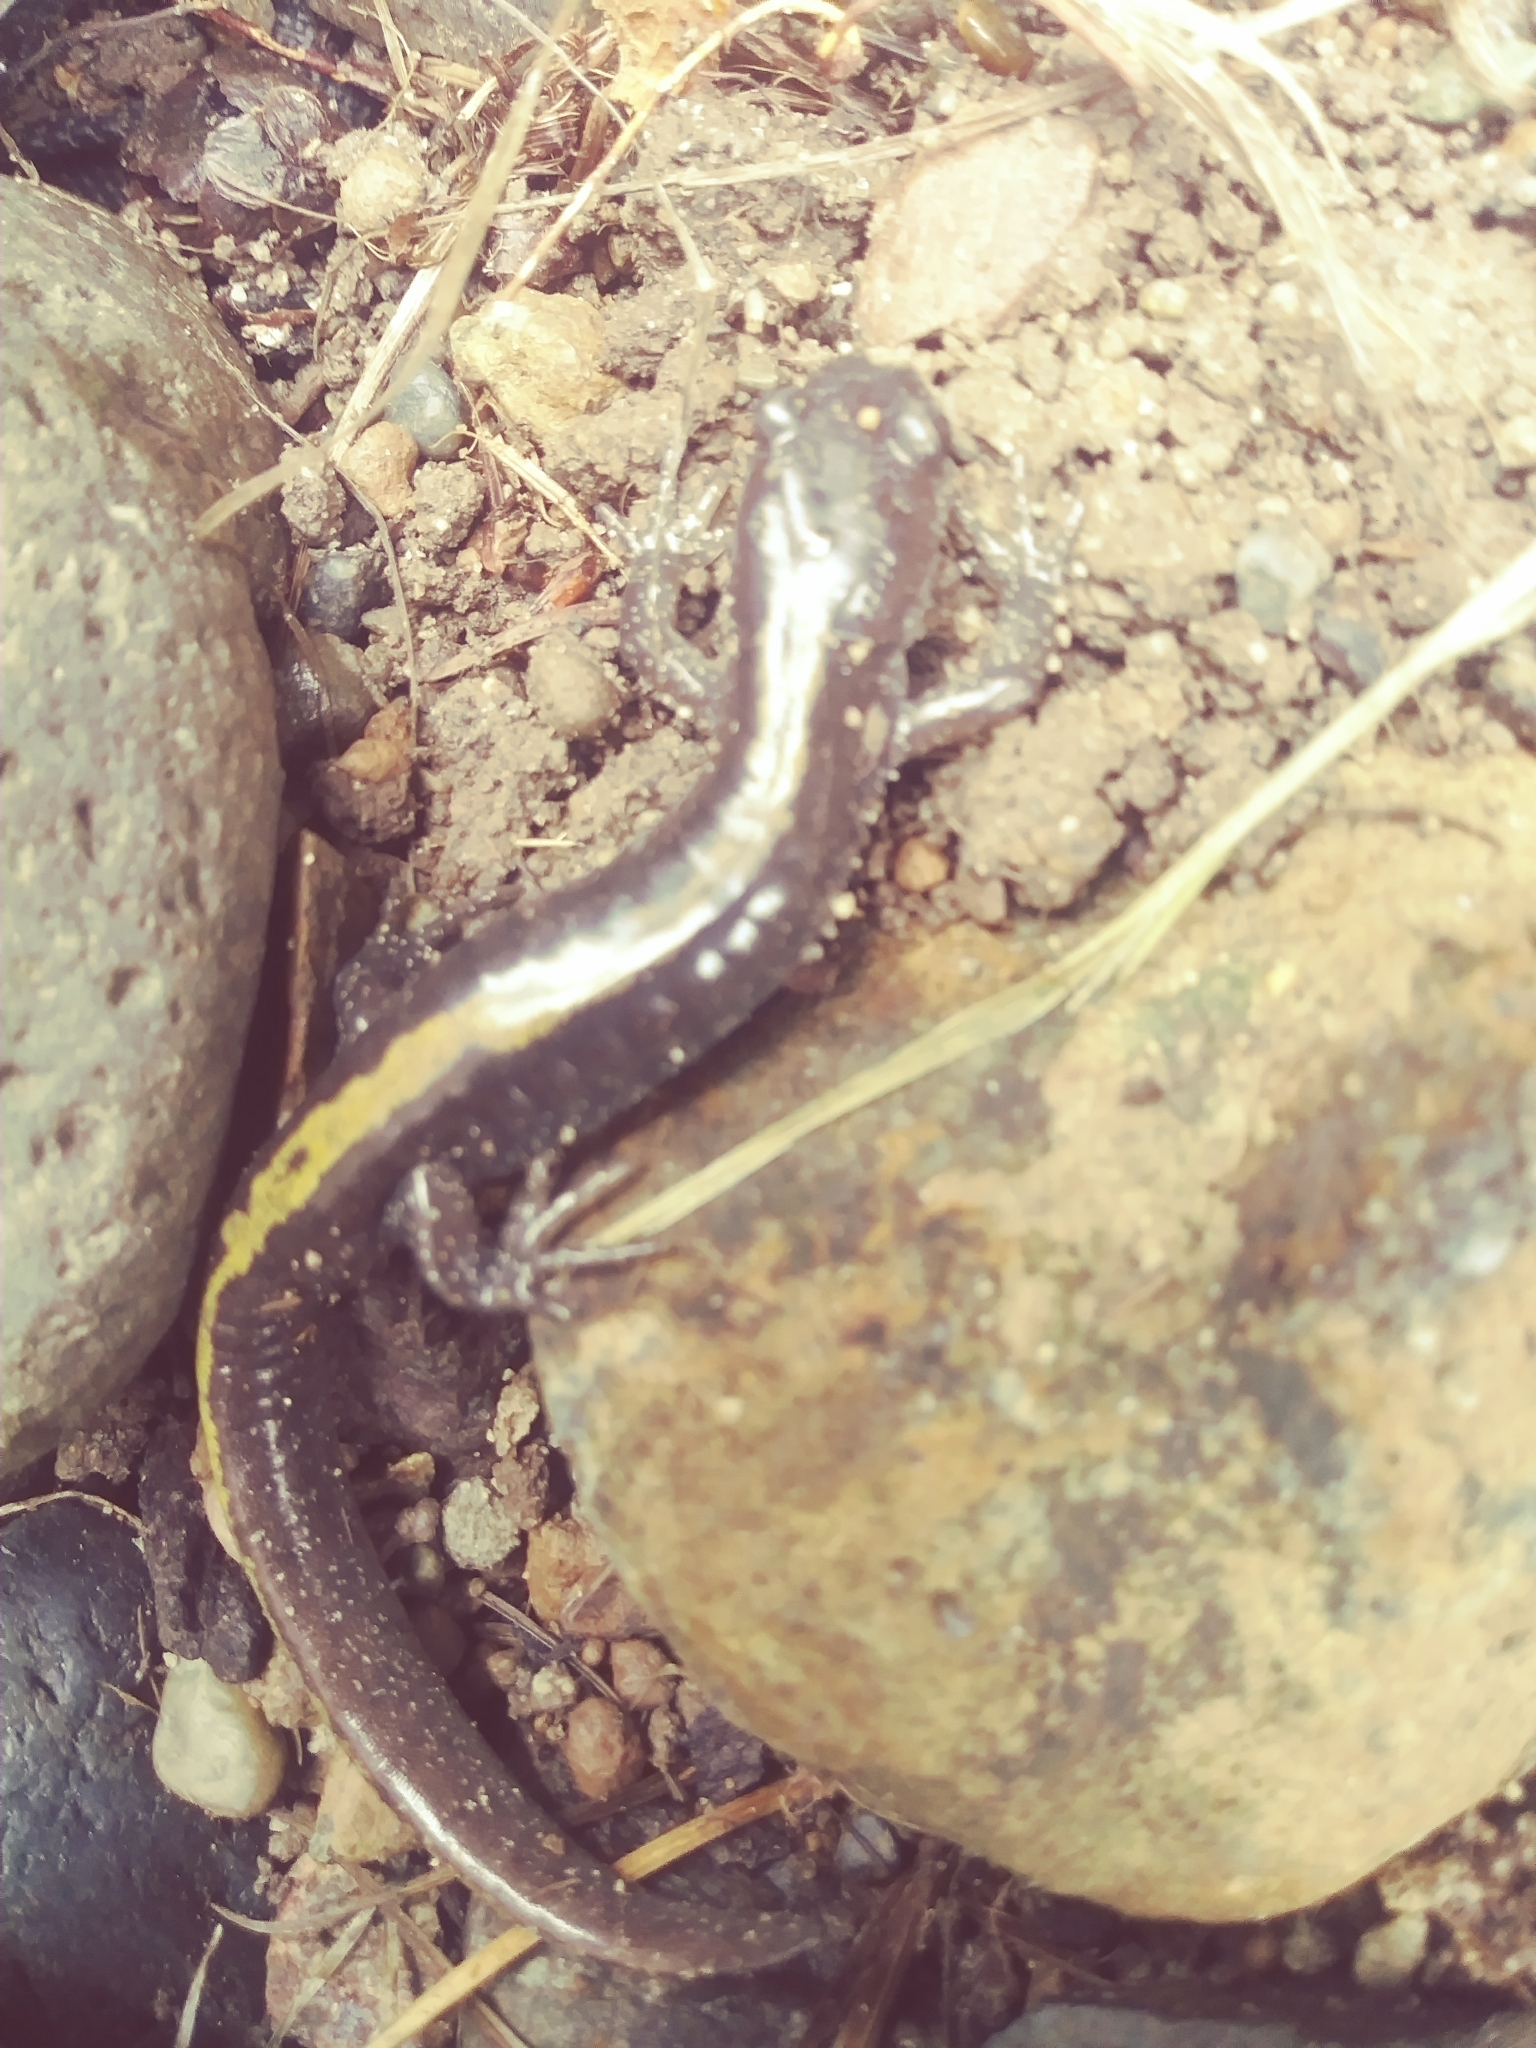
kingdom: Animalia
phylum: Chordata
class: Amphibia
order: Caudata
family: Ambystomatidae
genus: Ambystoma
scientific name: Ambystoma macrodactylum
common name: Long-toed salamander
